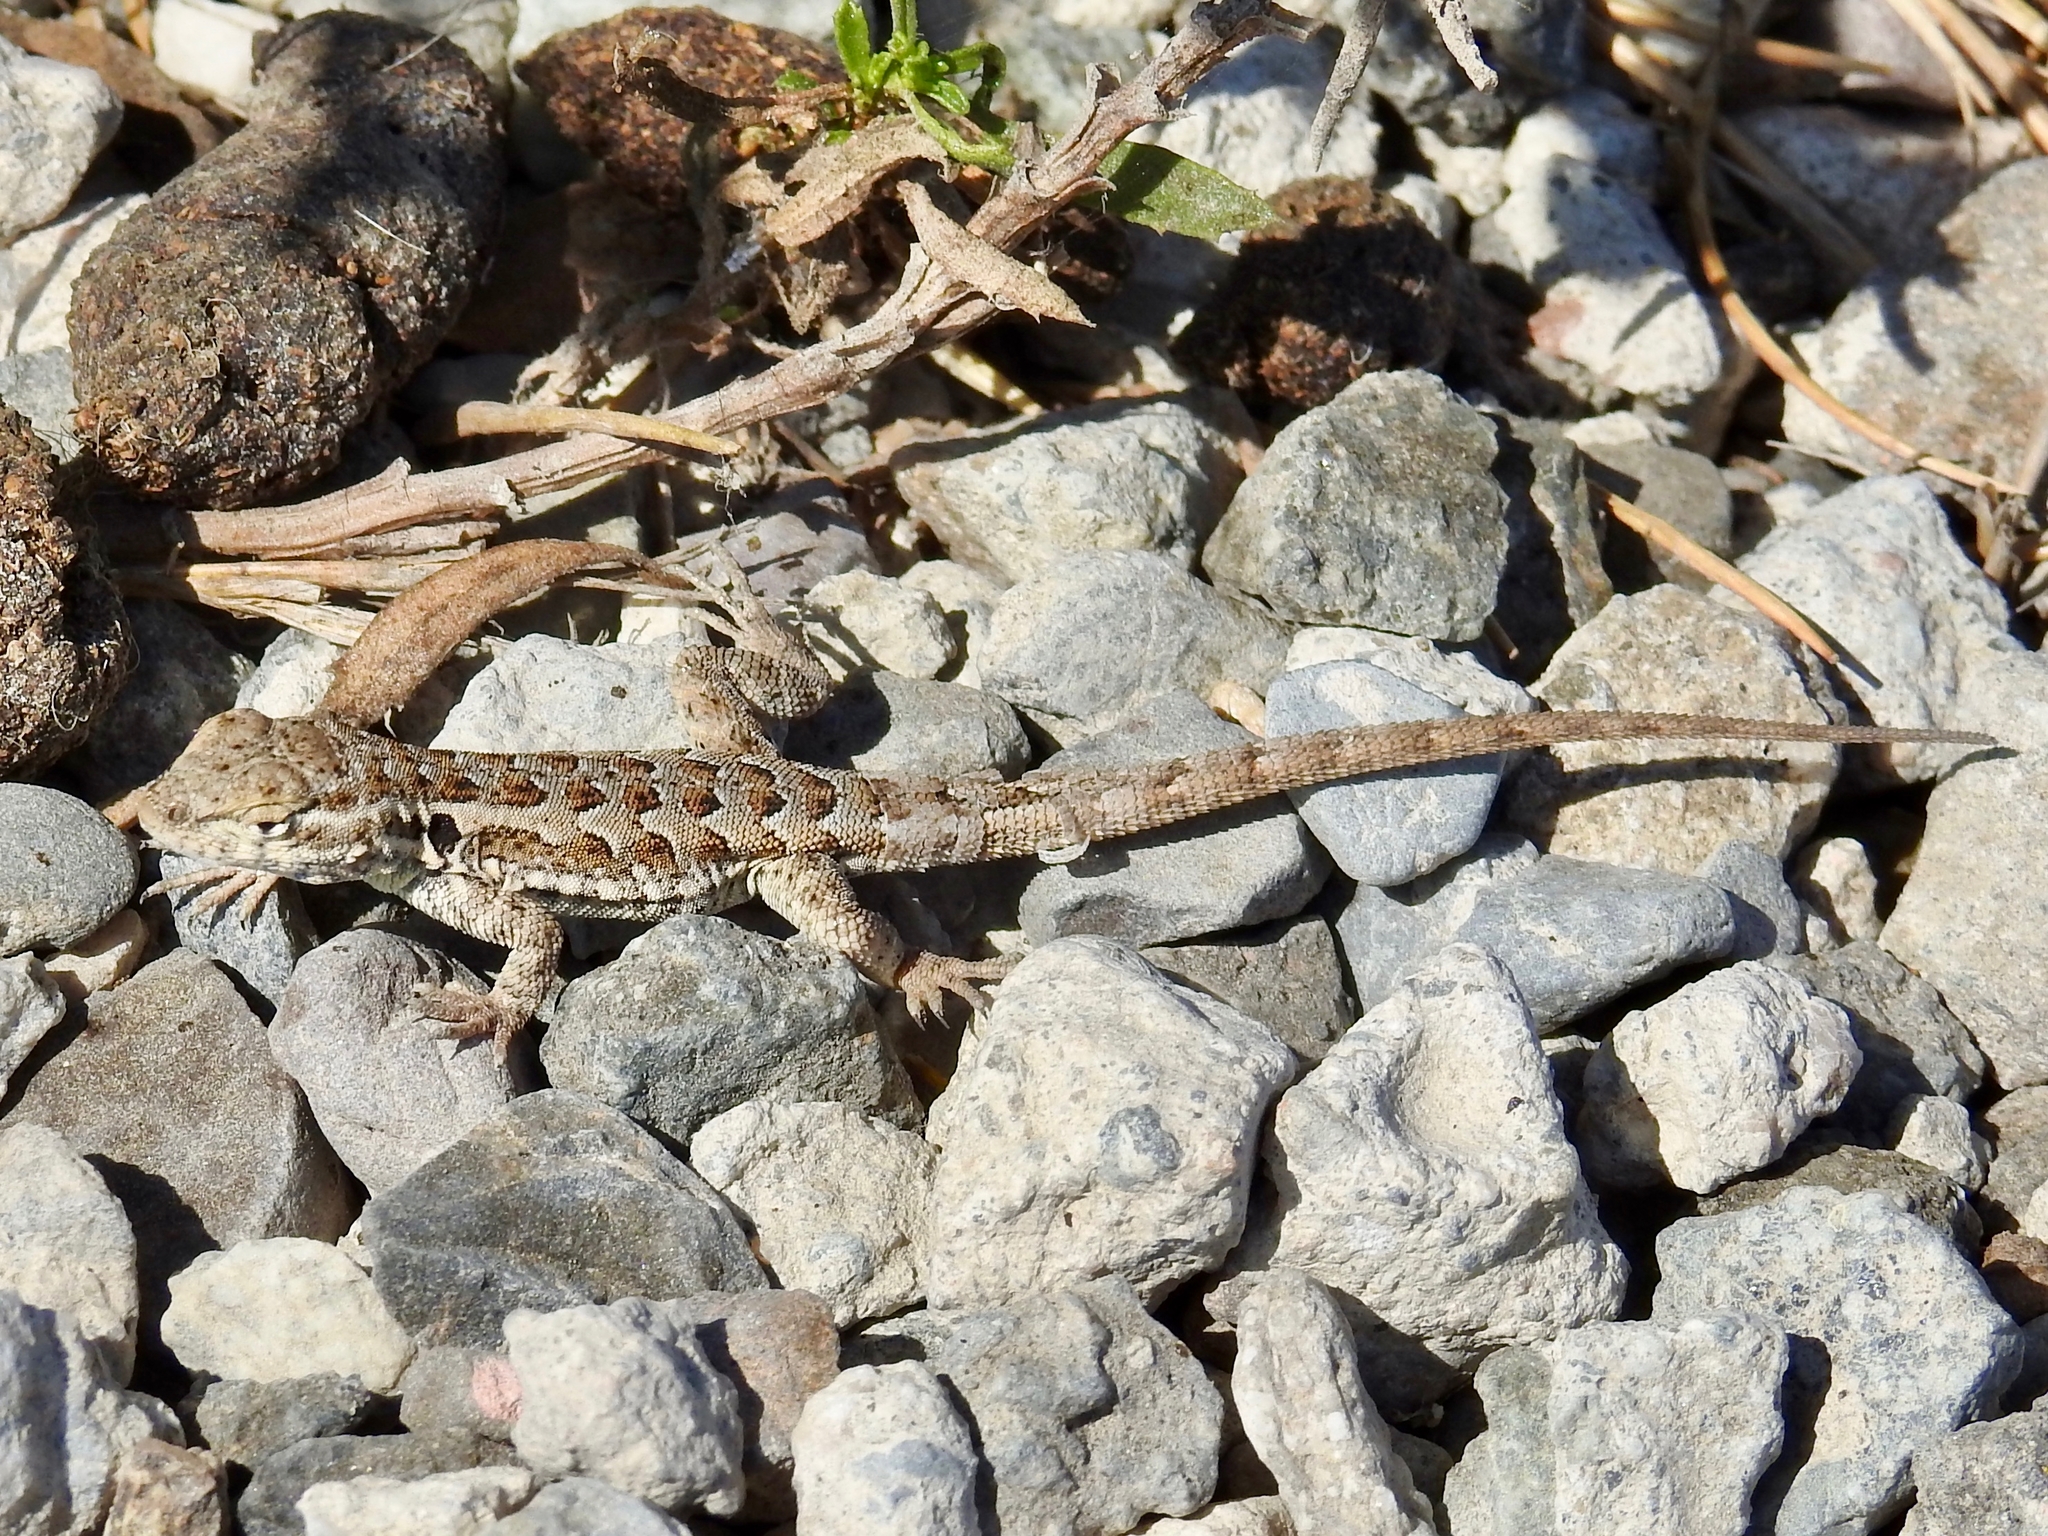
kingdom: Animalia
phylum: Chordata
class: Squamata
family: Phrynosomatidae
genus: Uta
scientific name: Uta stansburiana
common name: Side-blotched lizard
